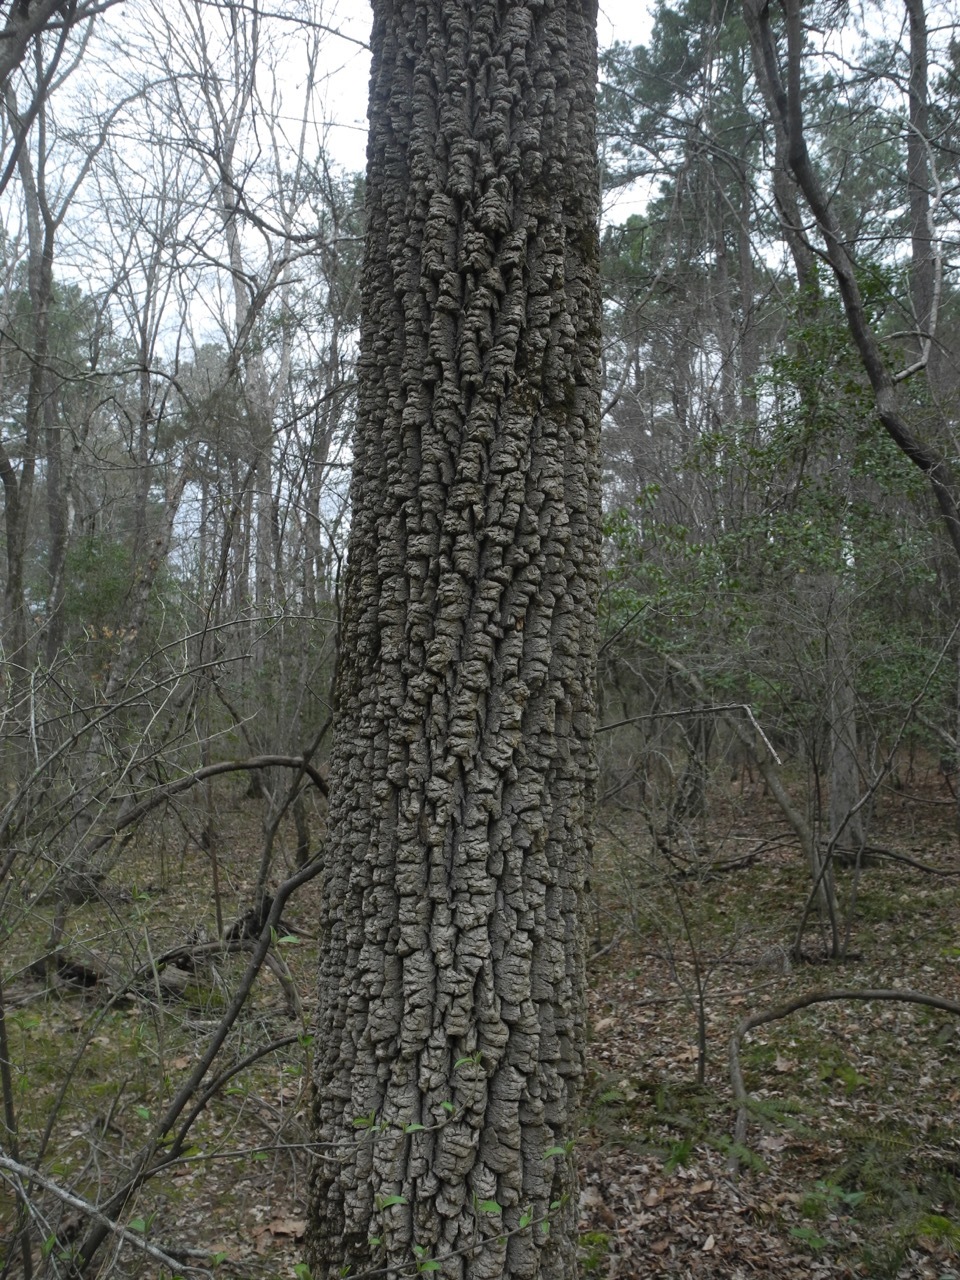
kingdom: Plantae
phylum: Tracheophyta
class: Magnoliopsida
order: Cornales
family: Nyssaceae
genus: Nyssa
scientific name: Nyssa sylvatica
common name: Black tupelo
